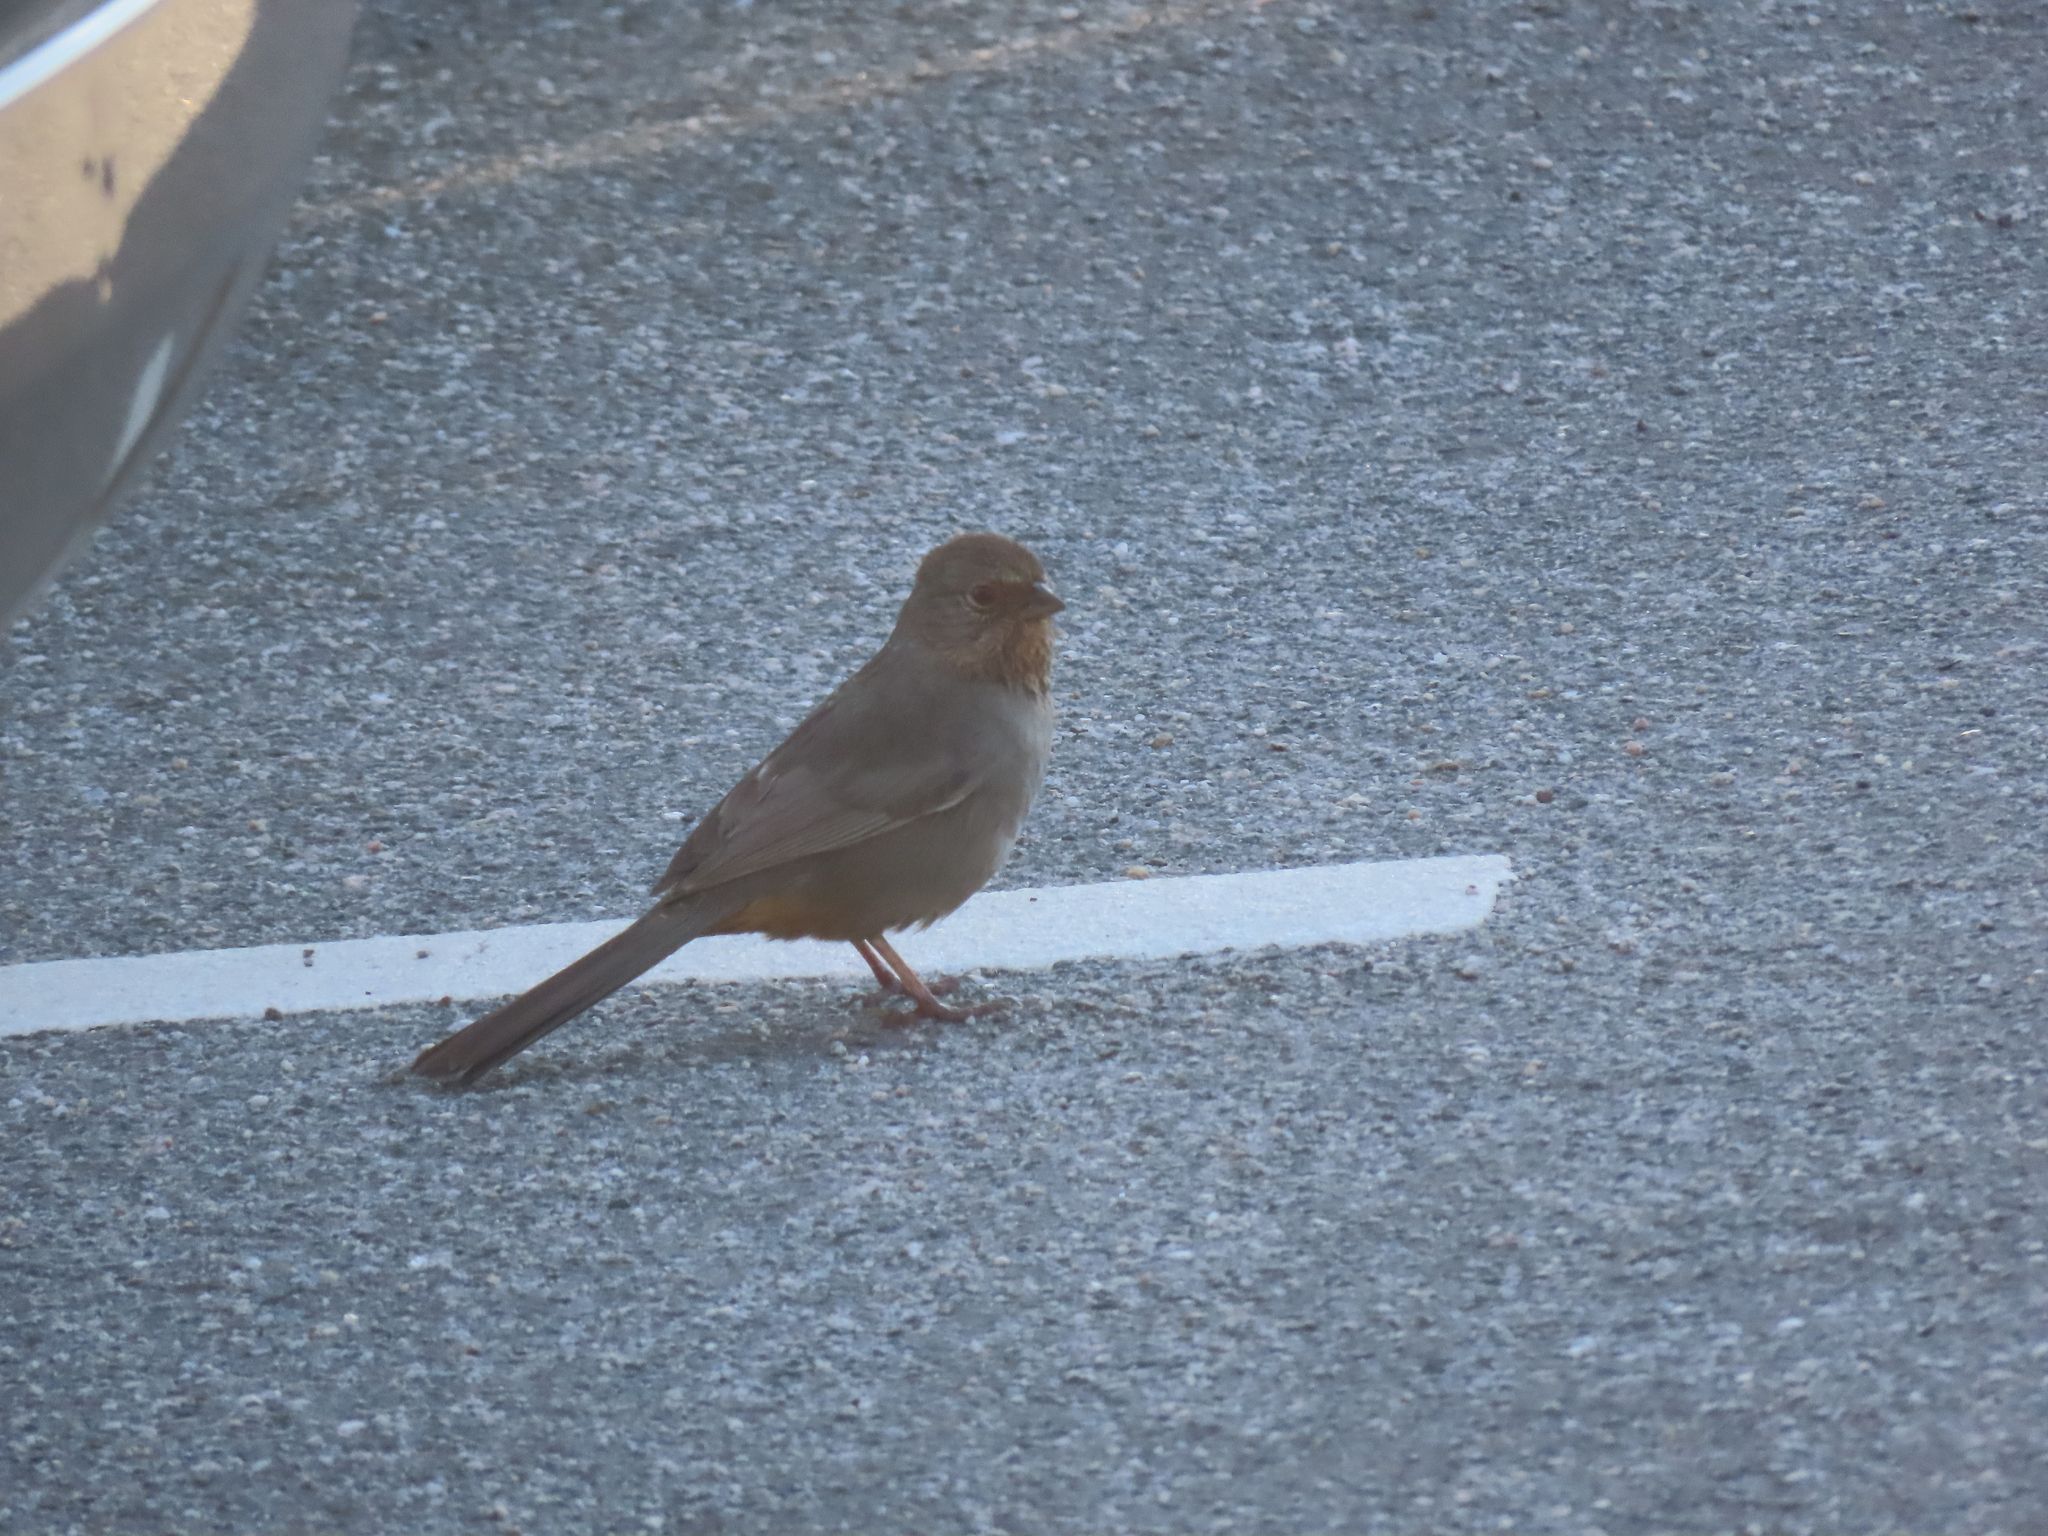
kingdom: Animalia
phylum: Chordata
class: Aves
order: Passeriformes
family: Passerellidae
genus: Melozone
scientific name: Melozone crissalis
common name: California towhee
